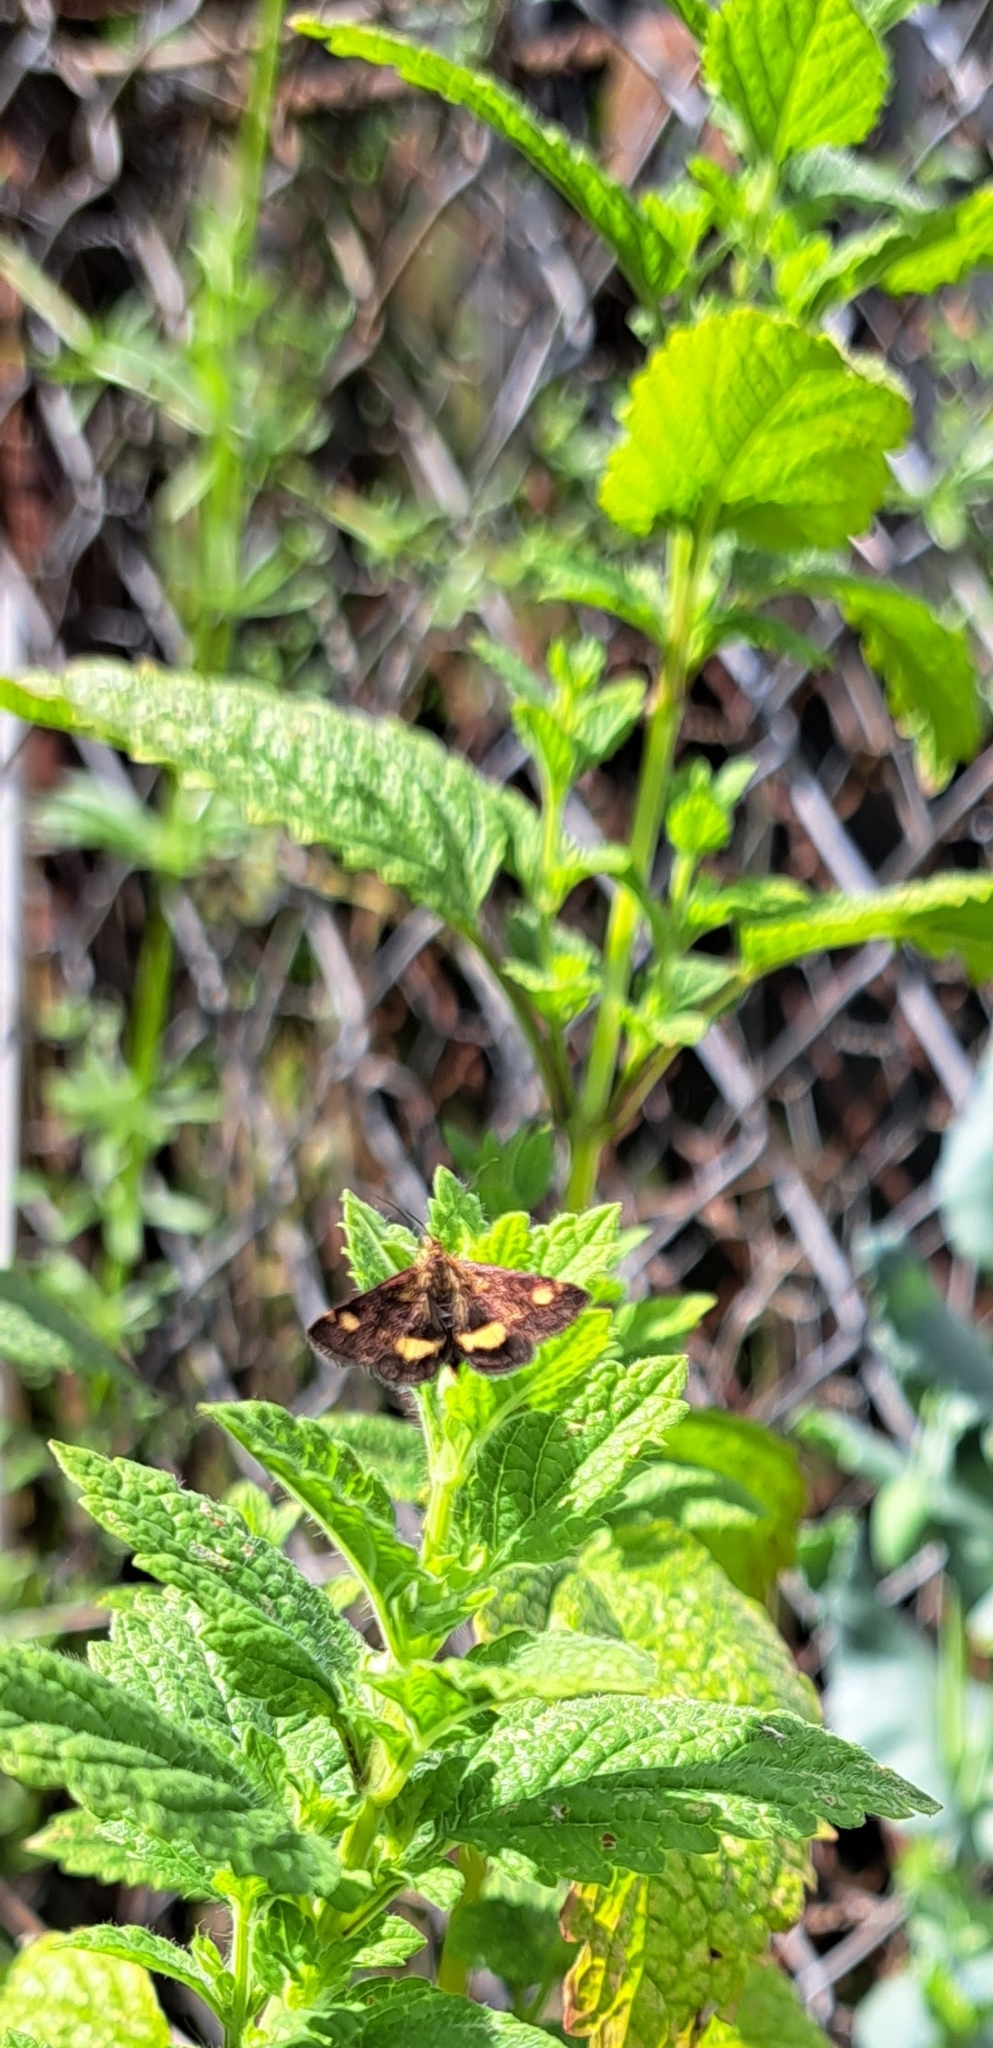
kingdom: Animalia
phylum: Arthropoda
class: Insecta
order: Lepidoptera
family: Crambidae
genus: Pyrausta
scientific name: Pyrausta aurata
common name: Small purple & gold
